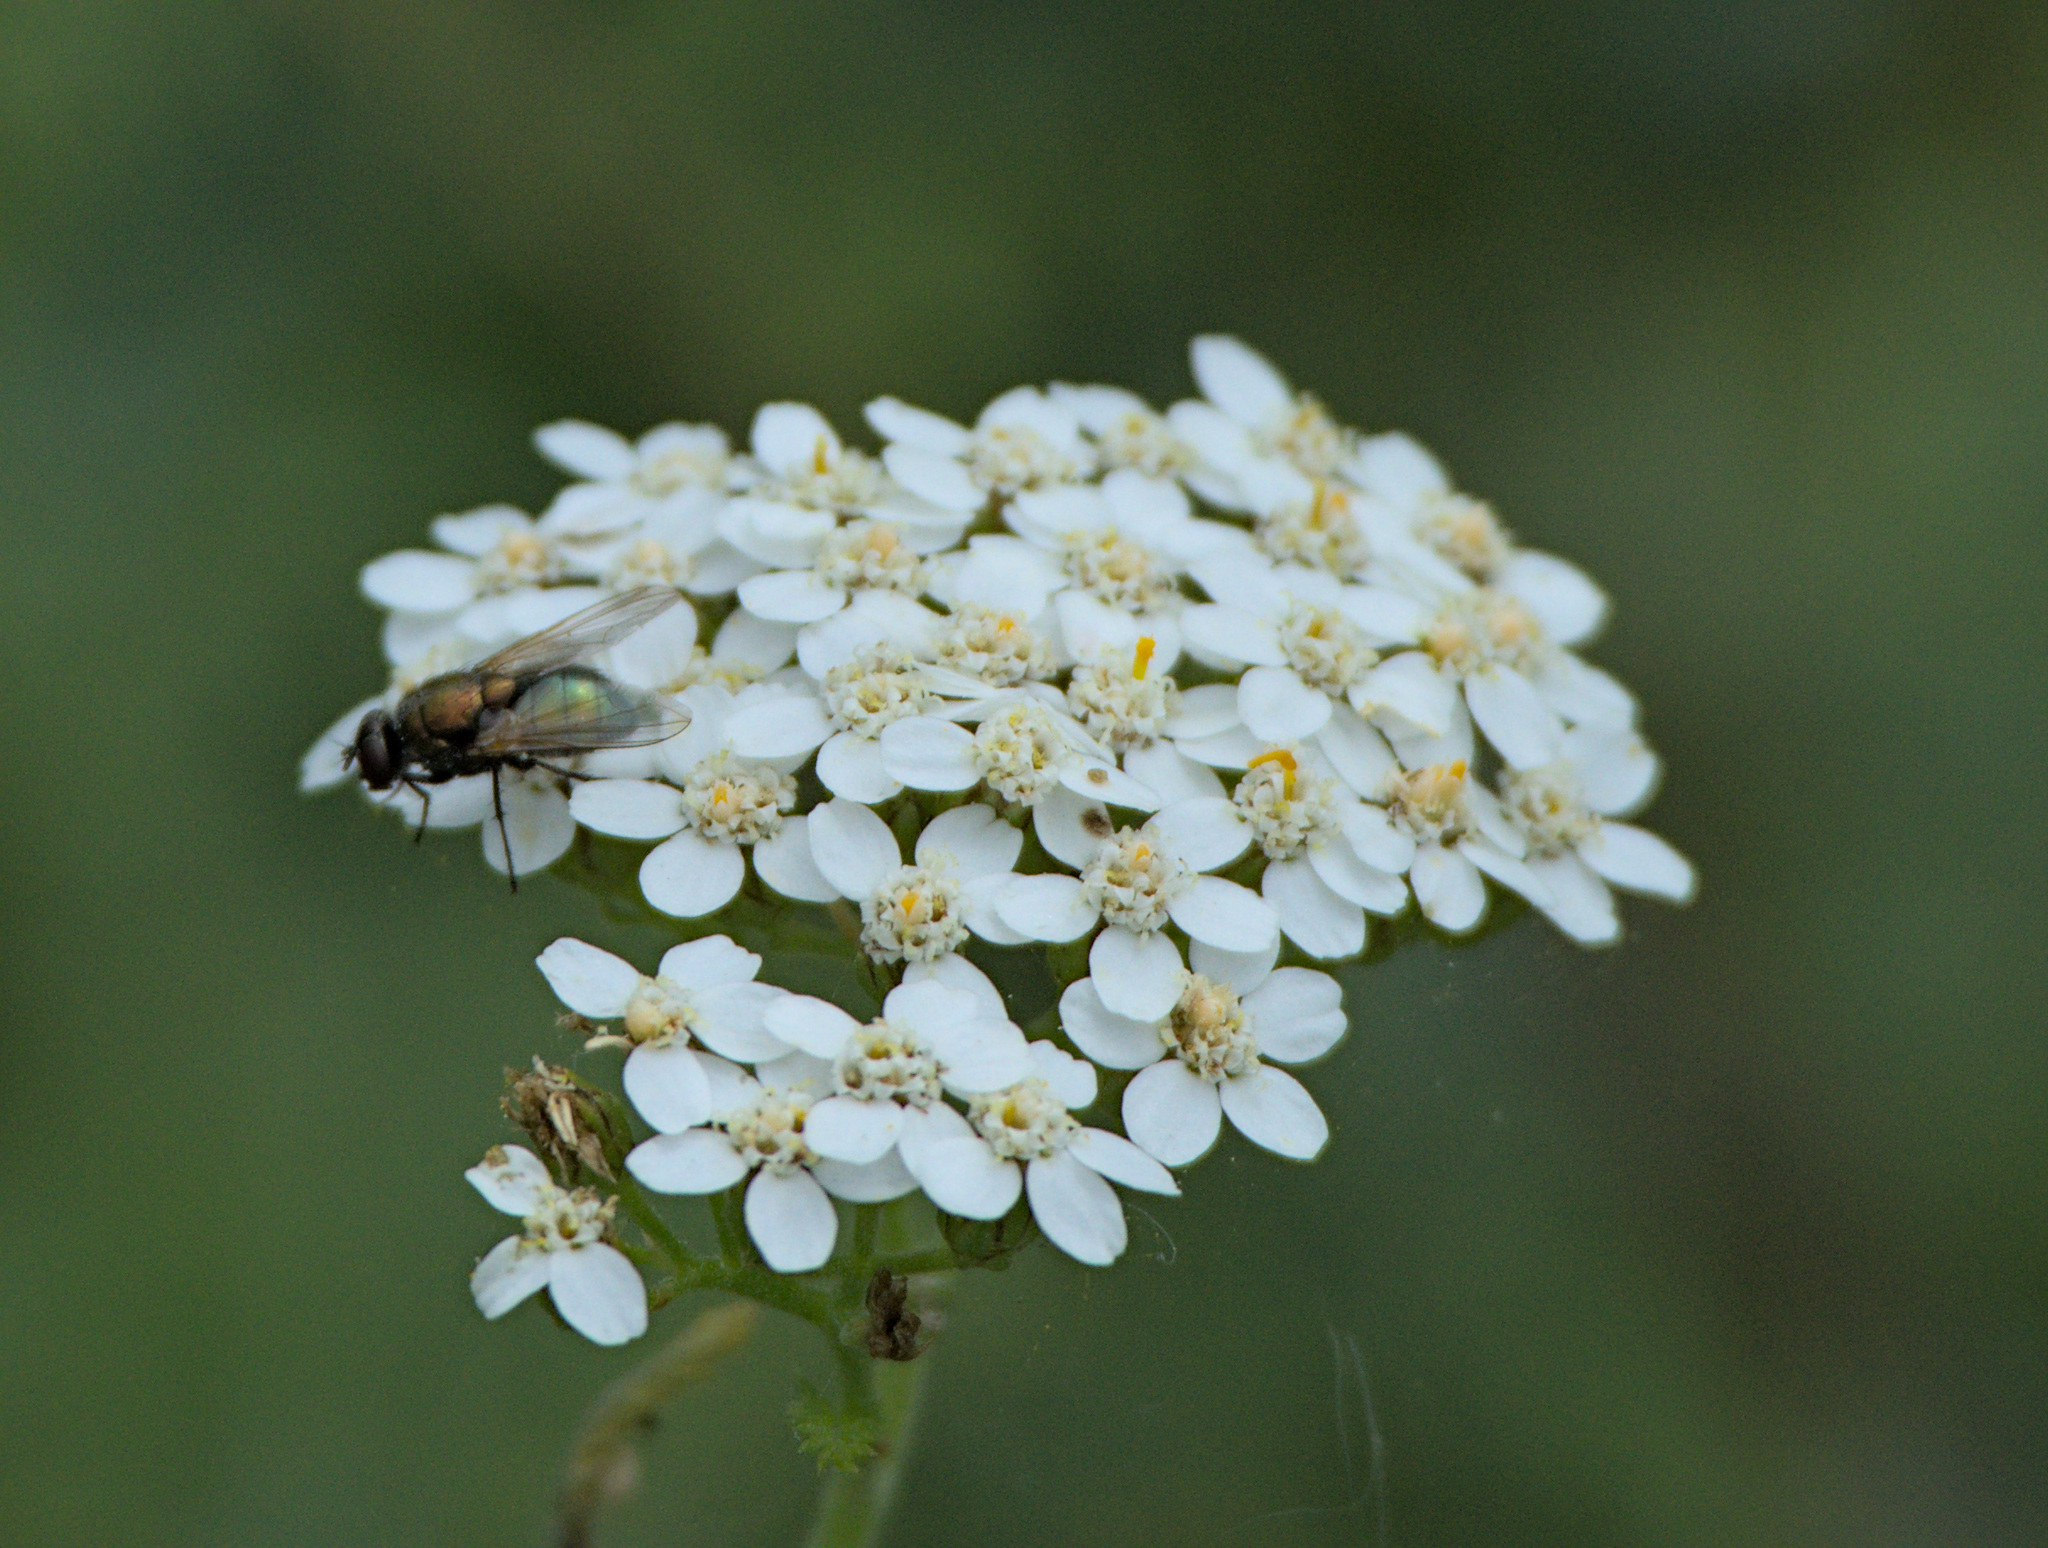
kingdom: Plantae
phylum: Tracheophyta
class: Magnoliopsida
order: Asterales
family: Asteraceae
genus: Achillea
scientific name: Achillea millefolium
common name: Yarrow
